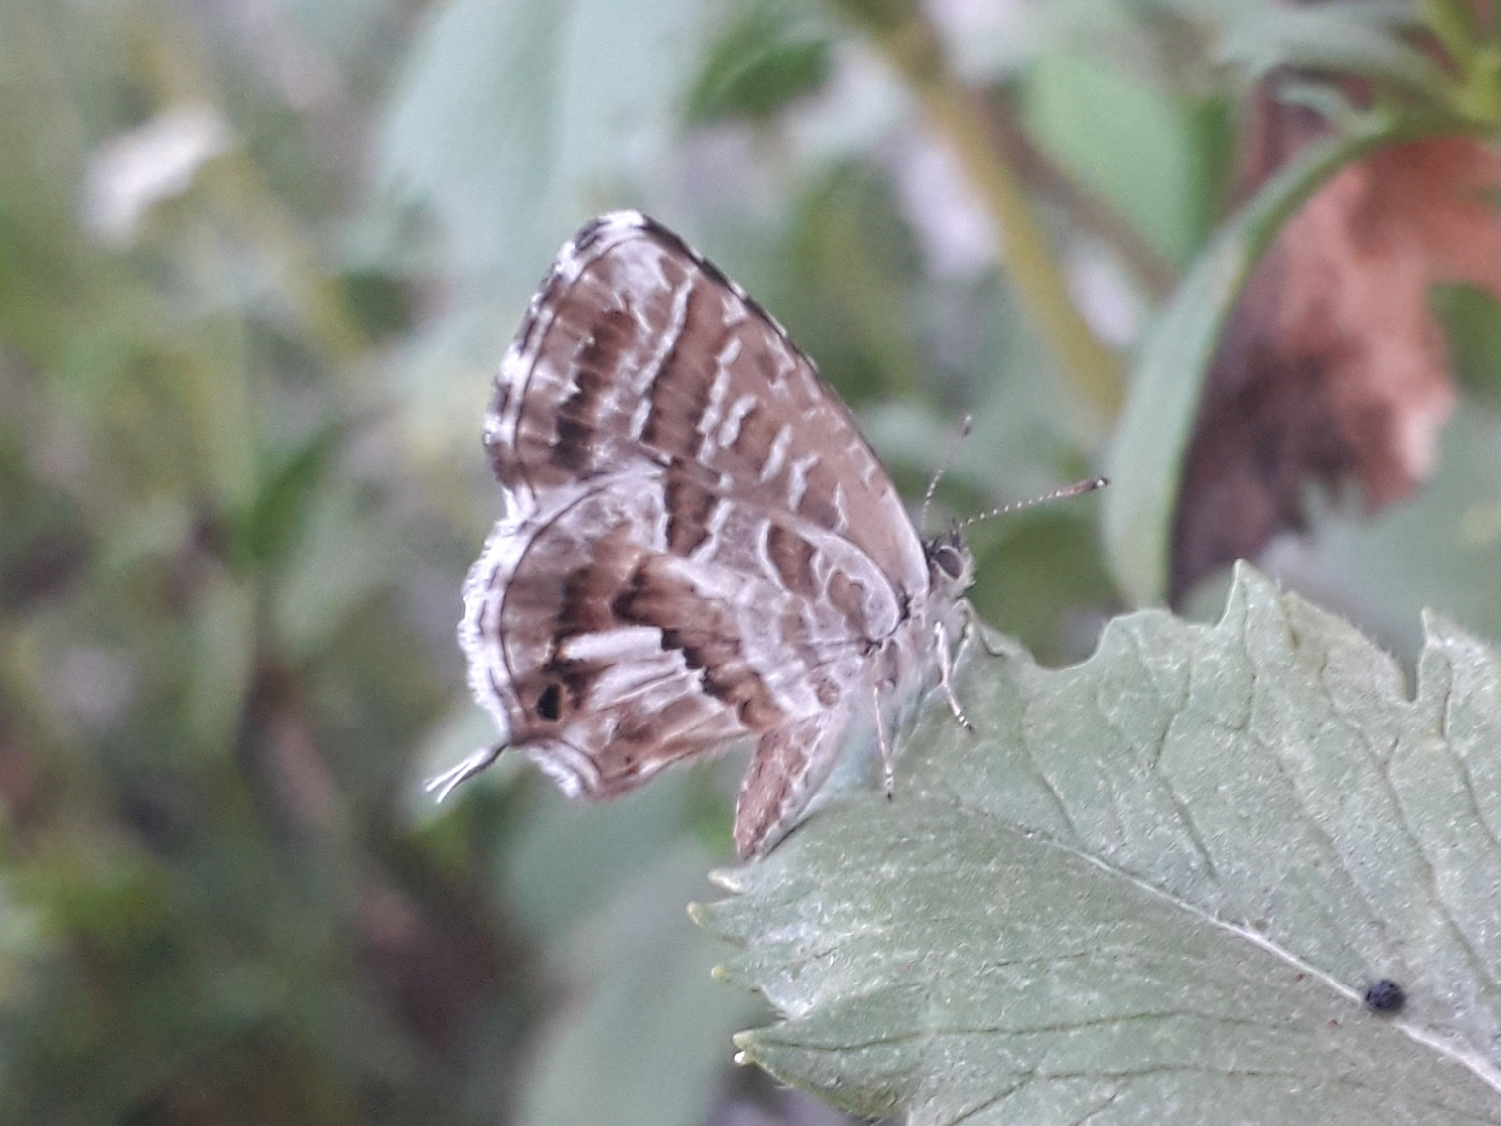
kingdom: Animalia
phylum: Arthropoda
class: Insecta
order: Lepidoptera
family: Lycaenidae
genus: Cacyreus
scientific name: Cacyreus marshalli
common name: Geranium bronze
